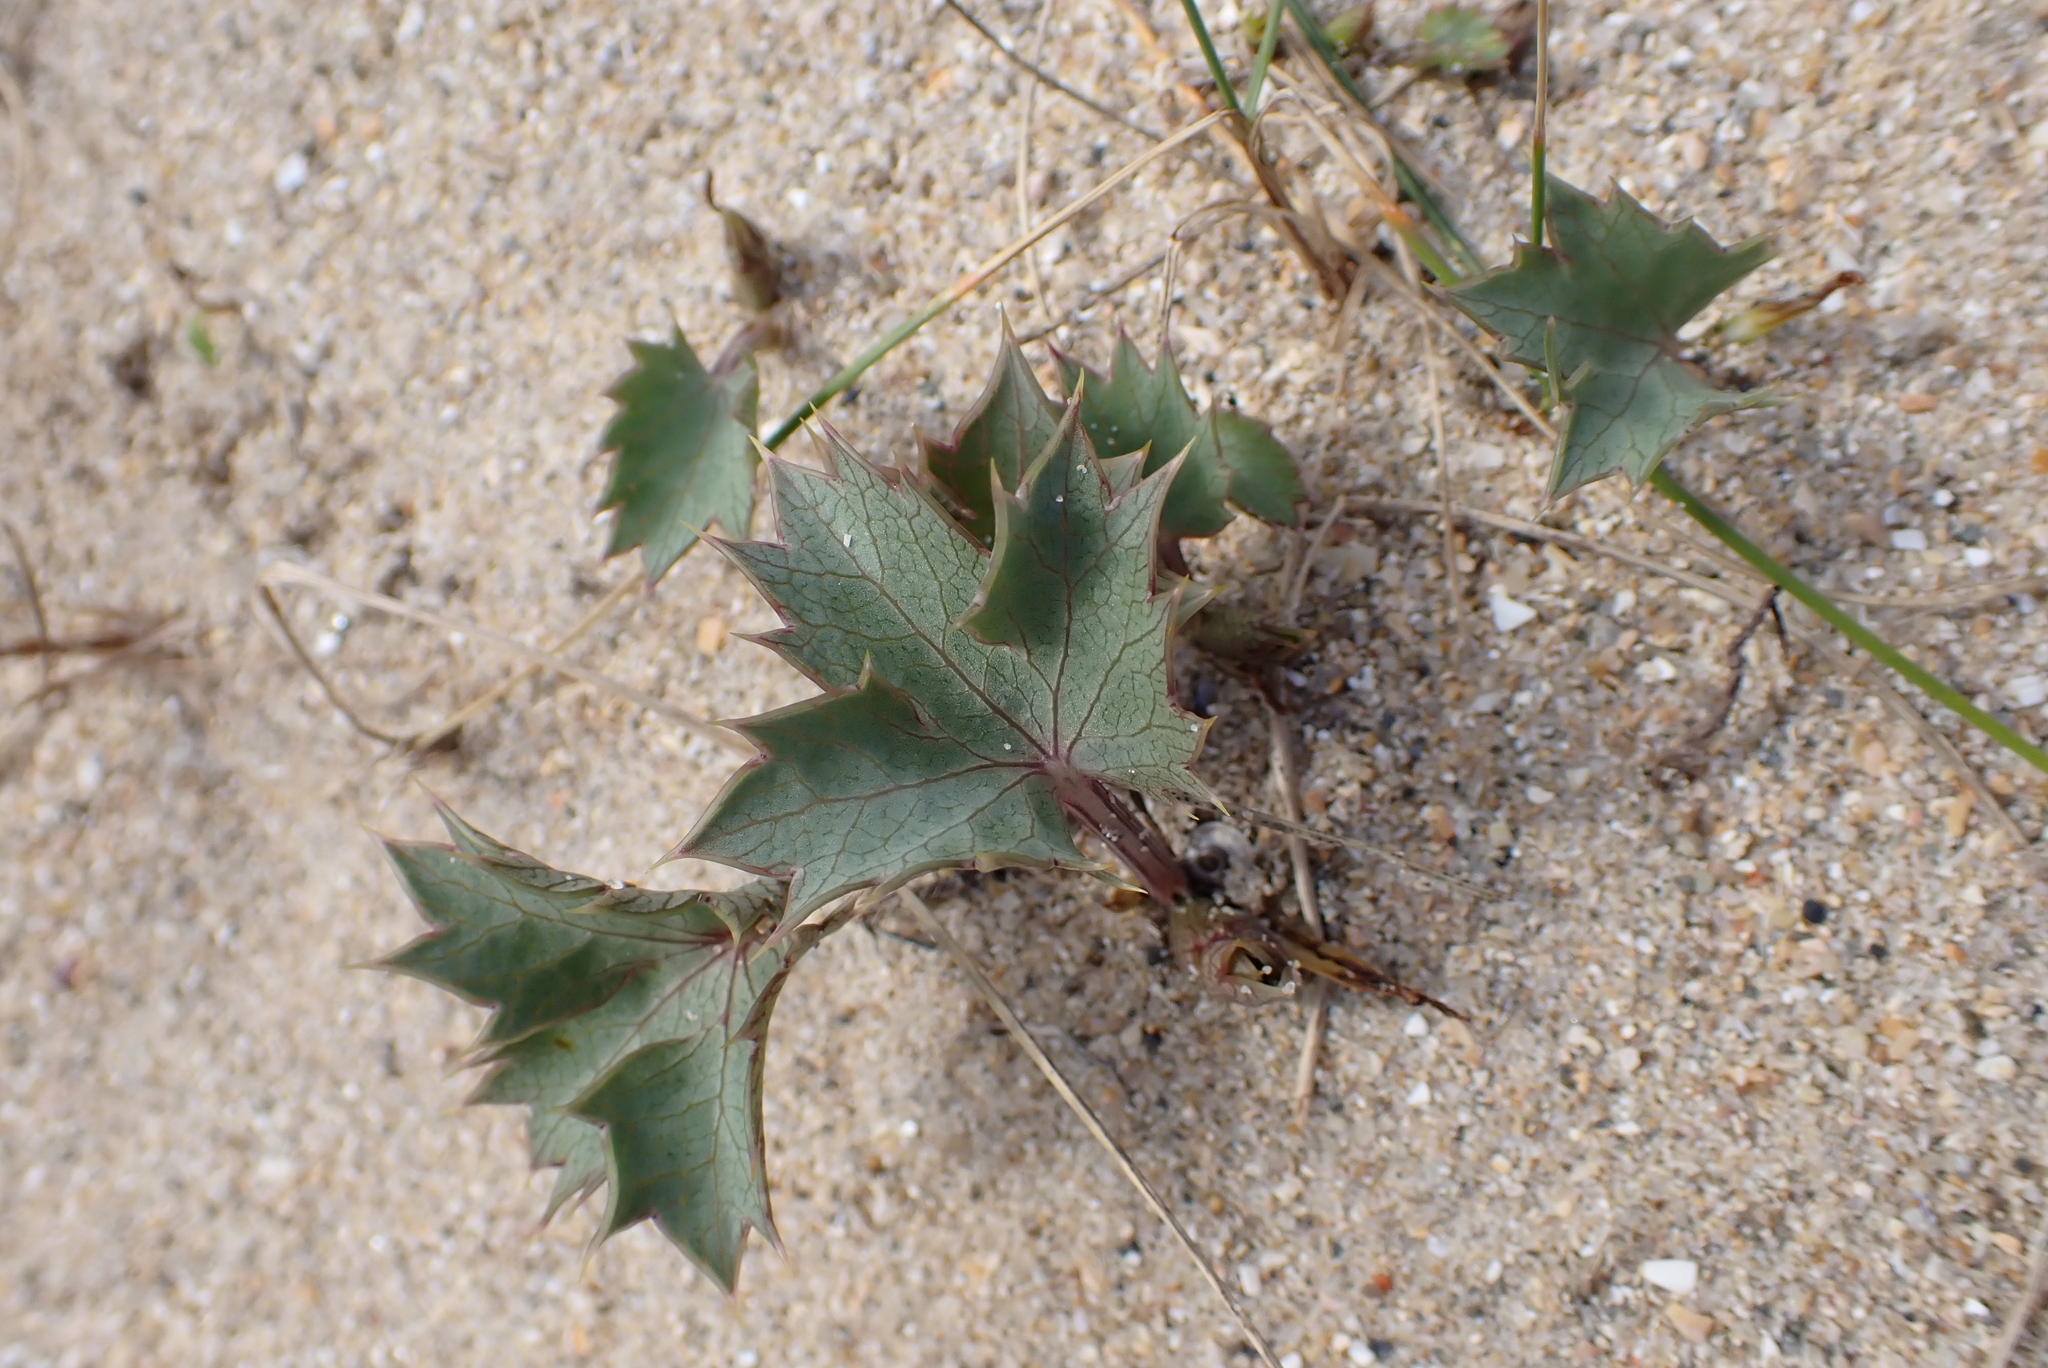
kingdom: Plantae
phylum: Tracheophyta
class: Magnoliopsida
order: Apiales
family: Apiaceae
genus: Eryngium
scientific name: Eryngium maritimum
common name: Sea-holly
